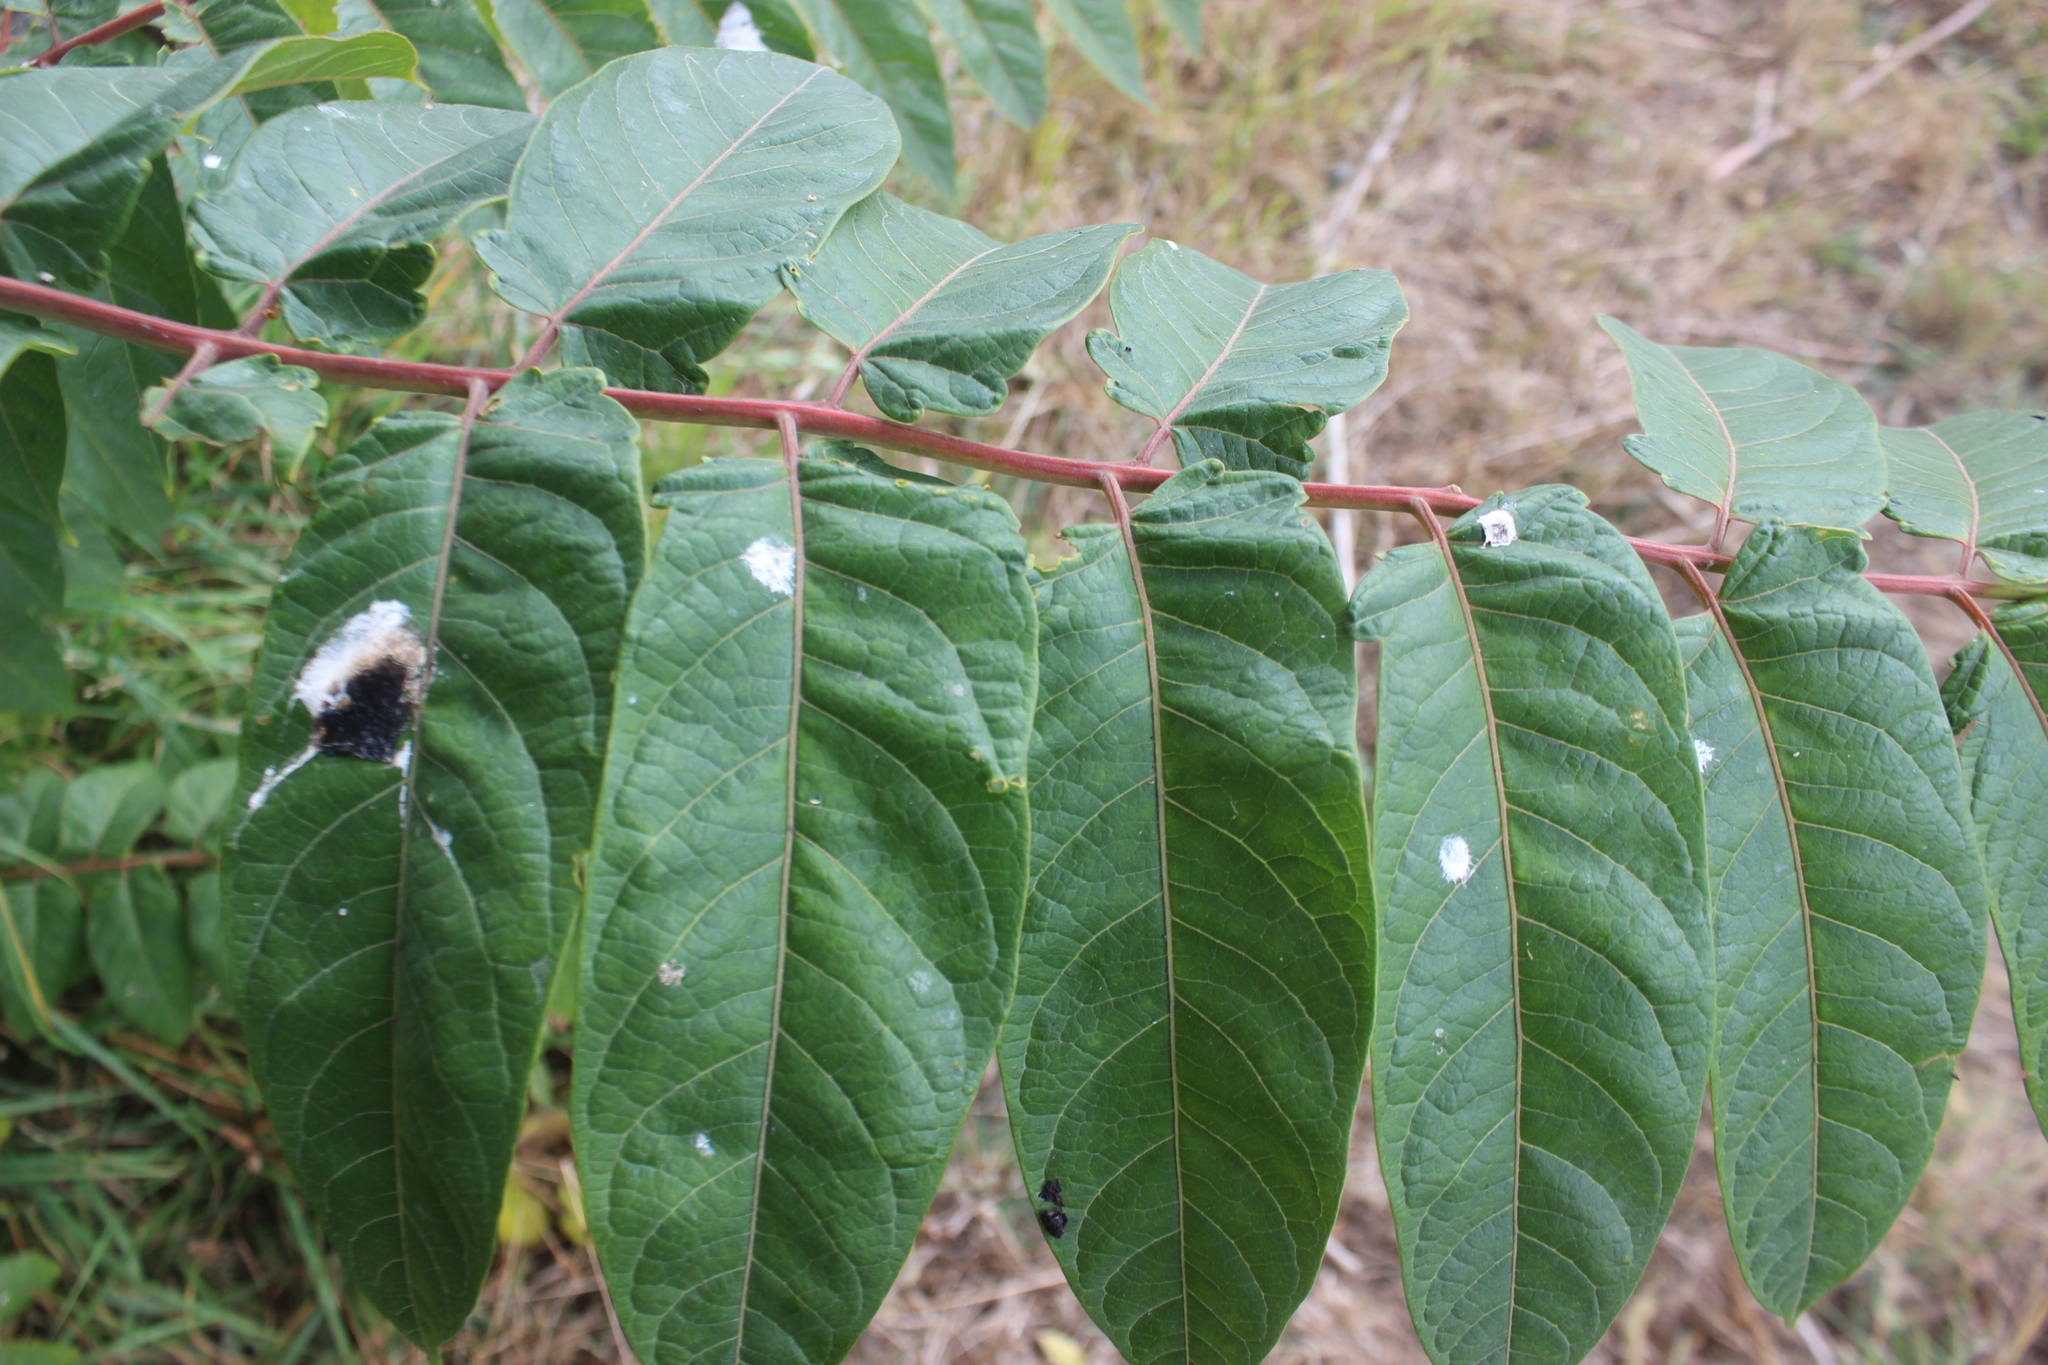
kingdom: Plantae
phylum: Tracheophyta
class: Magnoliopsida
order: Sapindales
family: Simaroubaceae
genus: Ailanthus
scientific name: Ailanthus altissima
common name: Tree-of-heaven
